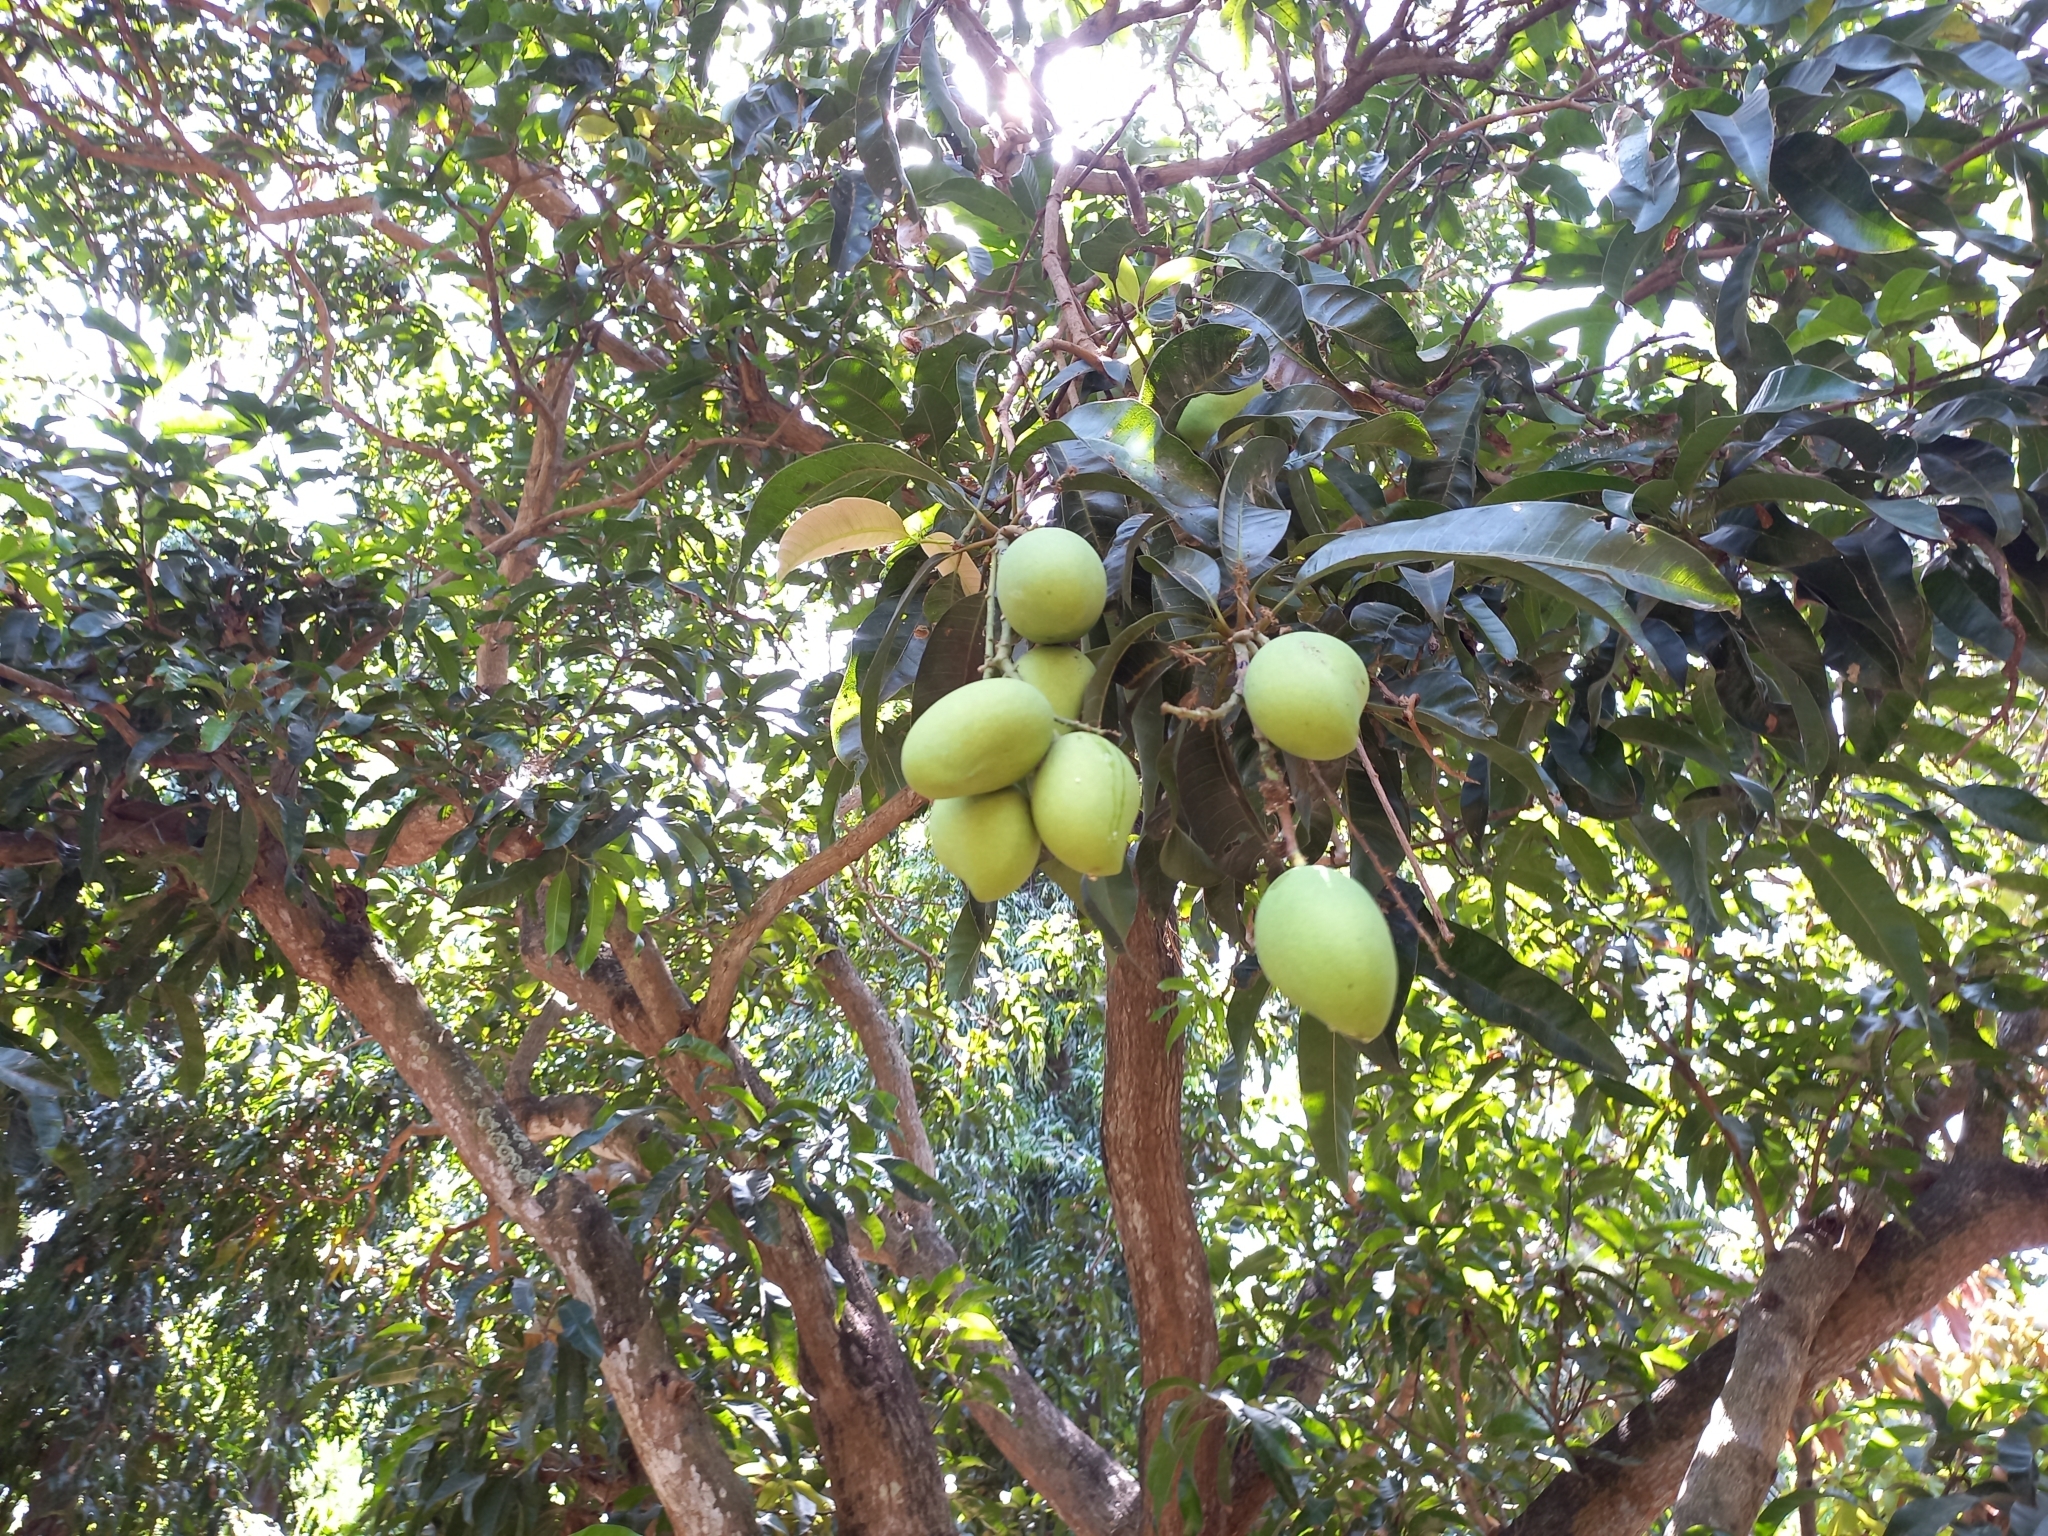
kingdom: Plantae
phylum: Tracheophyta
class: Magnoliopsida
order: Sapindales
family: Anacardiaceae
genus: Mangifera
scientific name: Mangifera indica
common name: Mango
